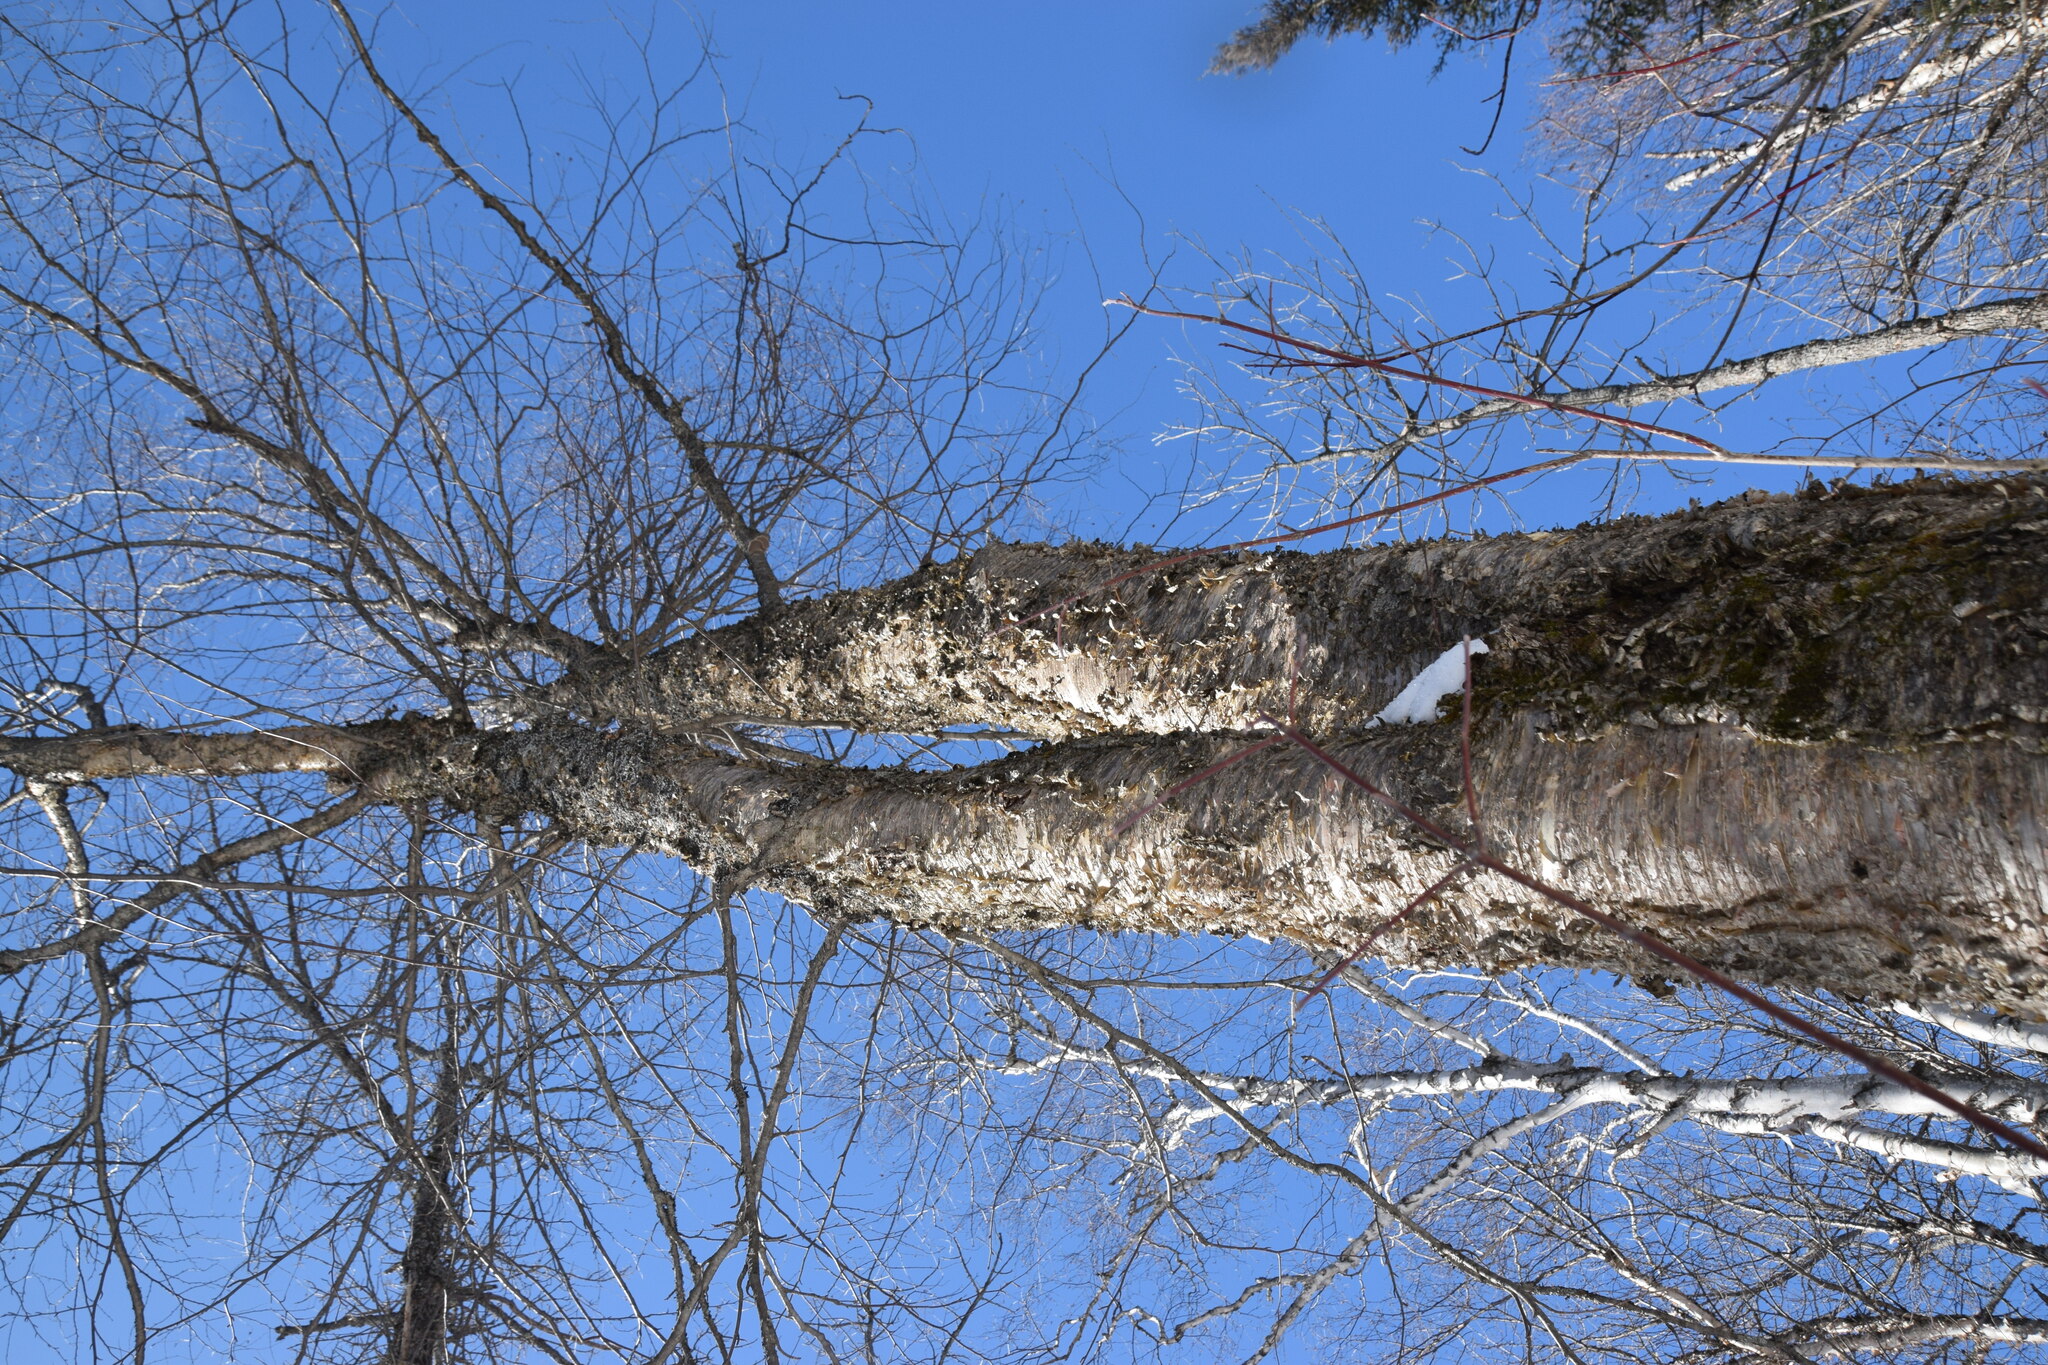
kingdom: Plantae
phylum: Tracheophyta
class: Magnoliopsida
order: Fagales
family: Betulaceae
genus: Betula
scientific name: Betula alleghaniensis
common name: Yellow birch
